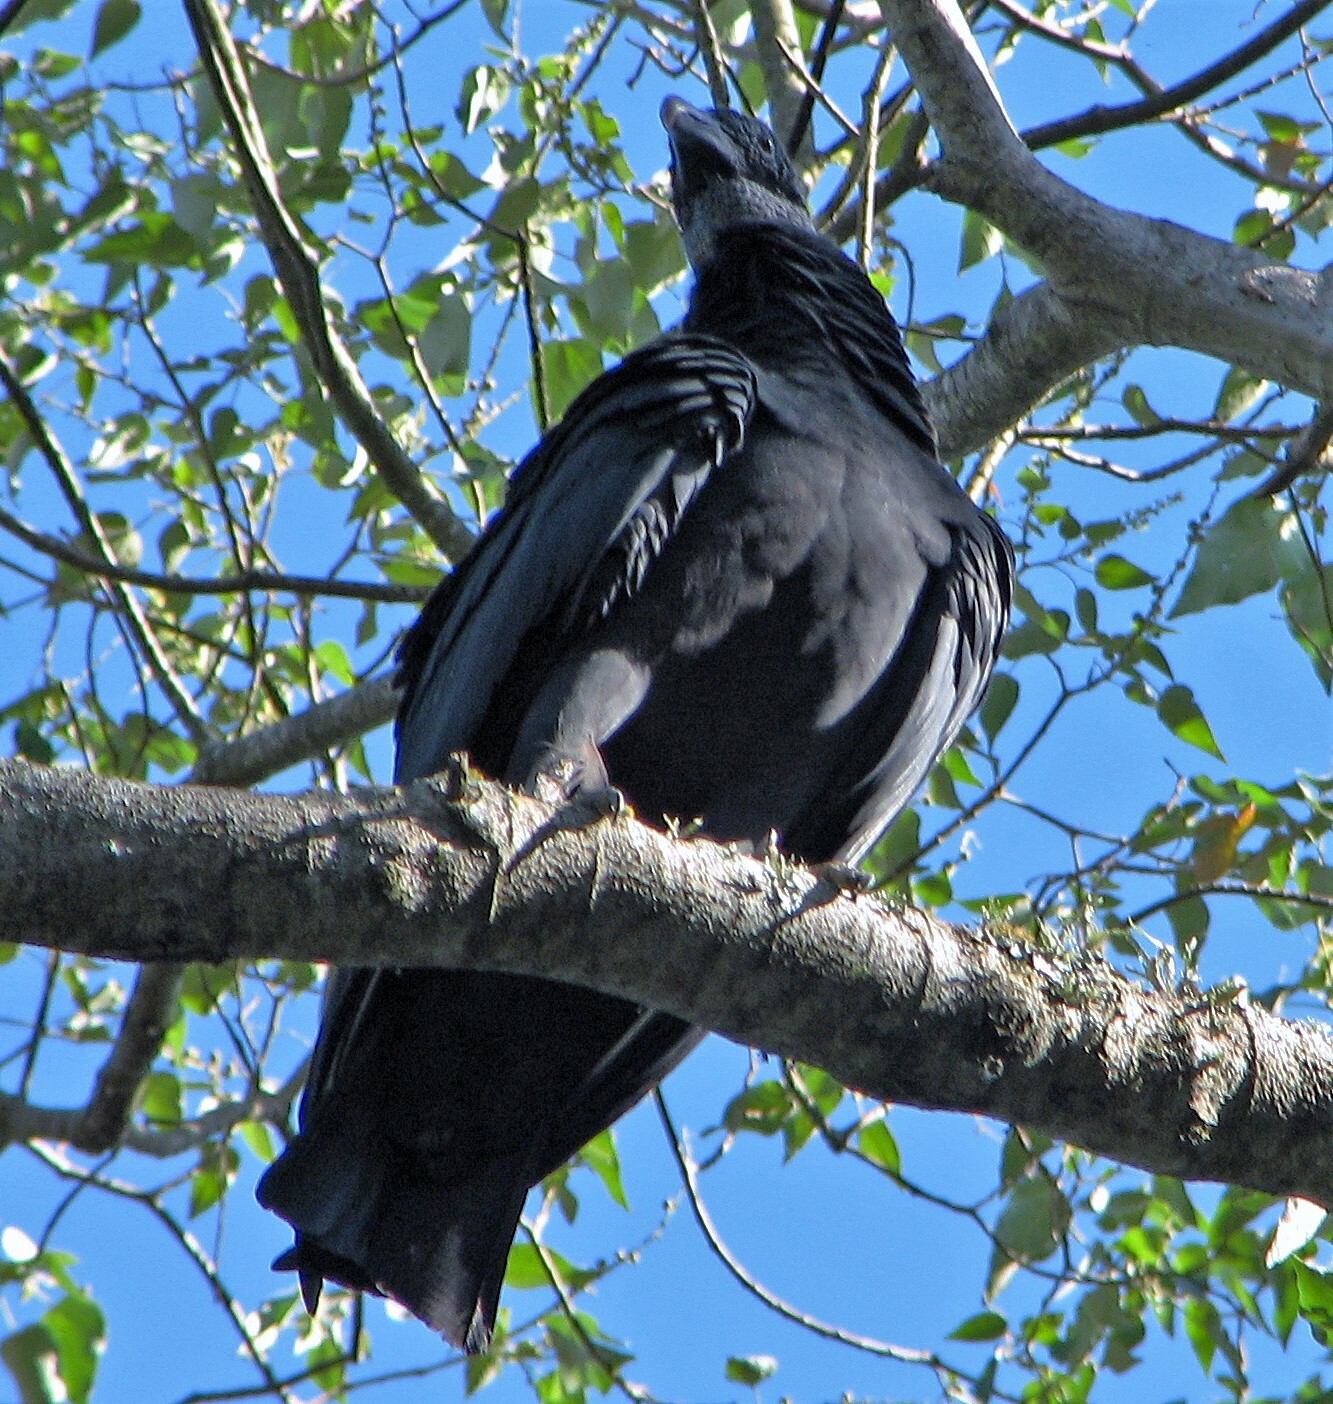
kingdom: Animalia
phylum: Chordata
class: Aves
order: Accipitriformes
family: Cathartidae
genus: Coragyps
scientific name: Coragyps atratus
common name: Black vulture
